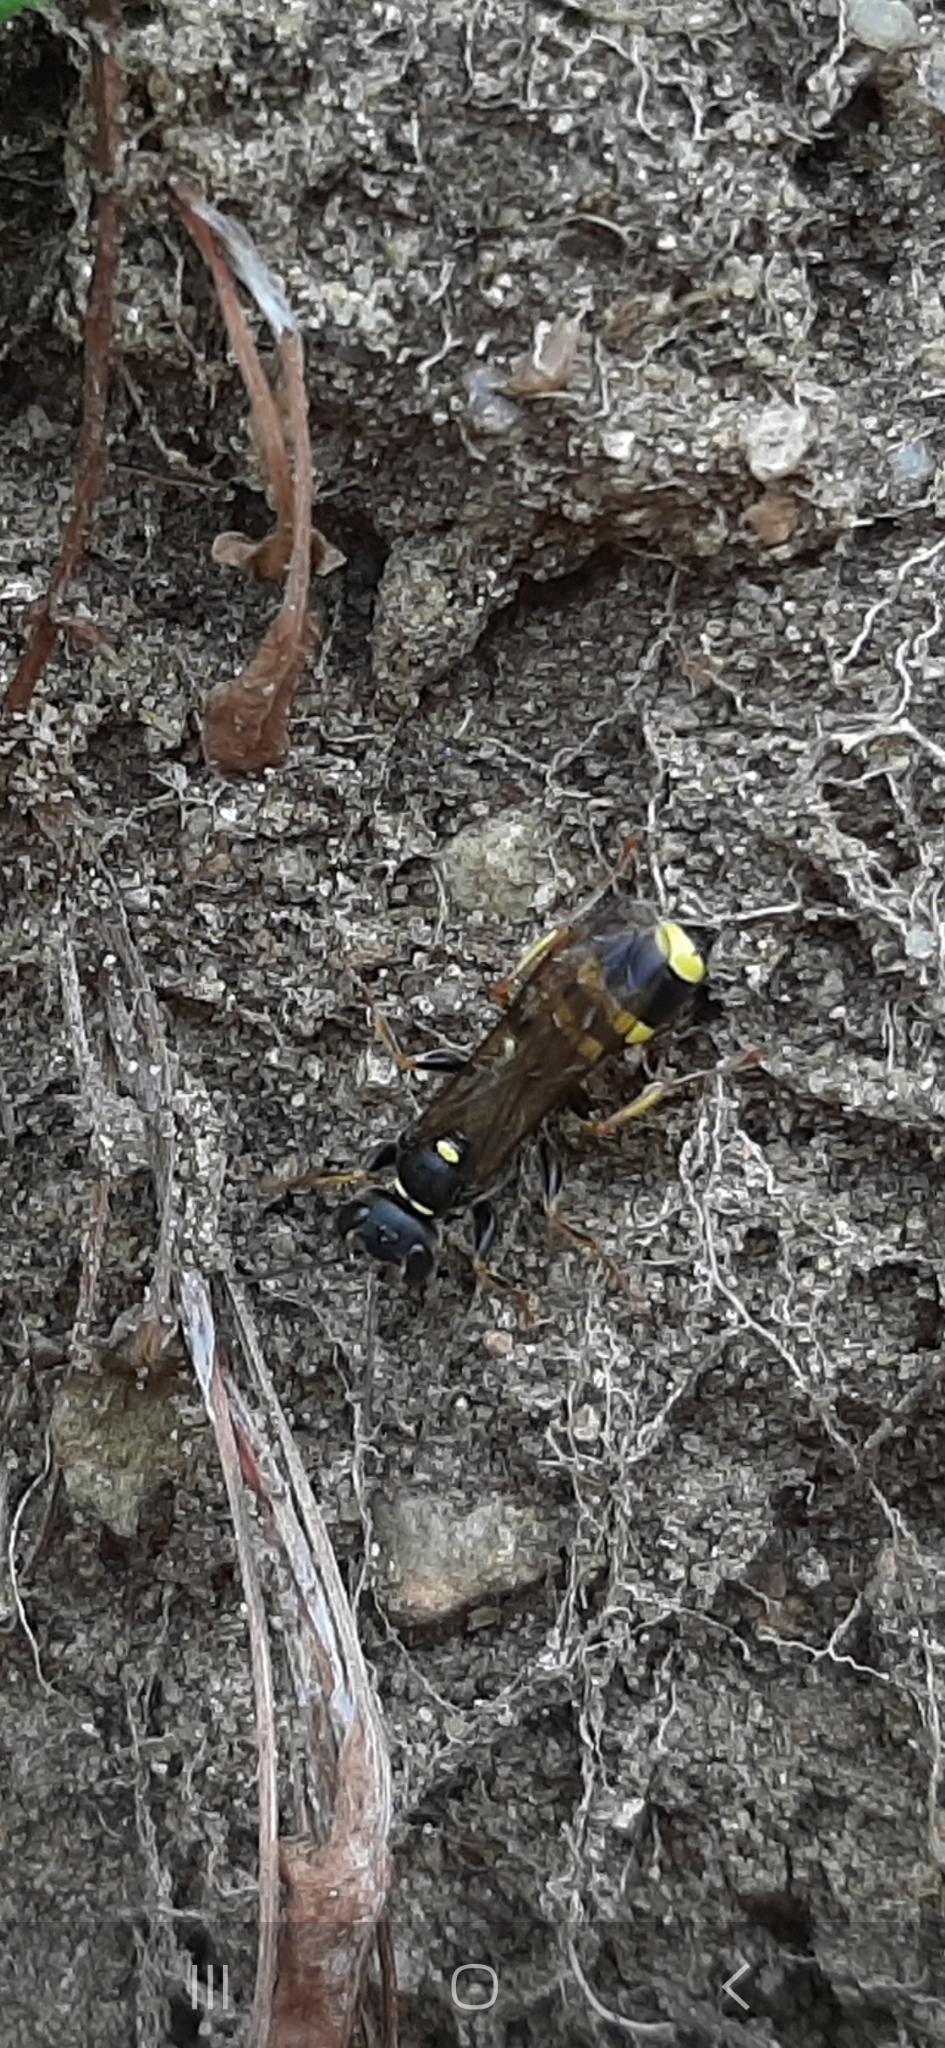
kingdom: Animalia
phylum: Arthropoda
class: Insecta
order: Hymenoptera
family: Crabronidae
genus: Mellinus
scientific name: Mellinus arvensis
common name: Field digger wasp
